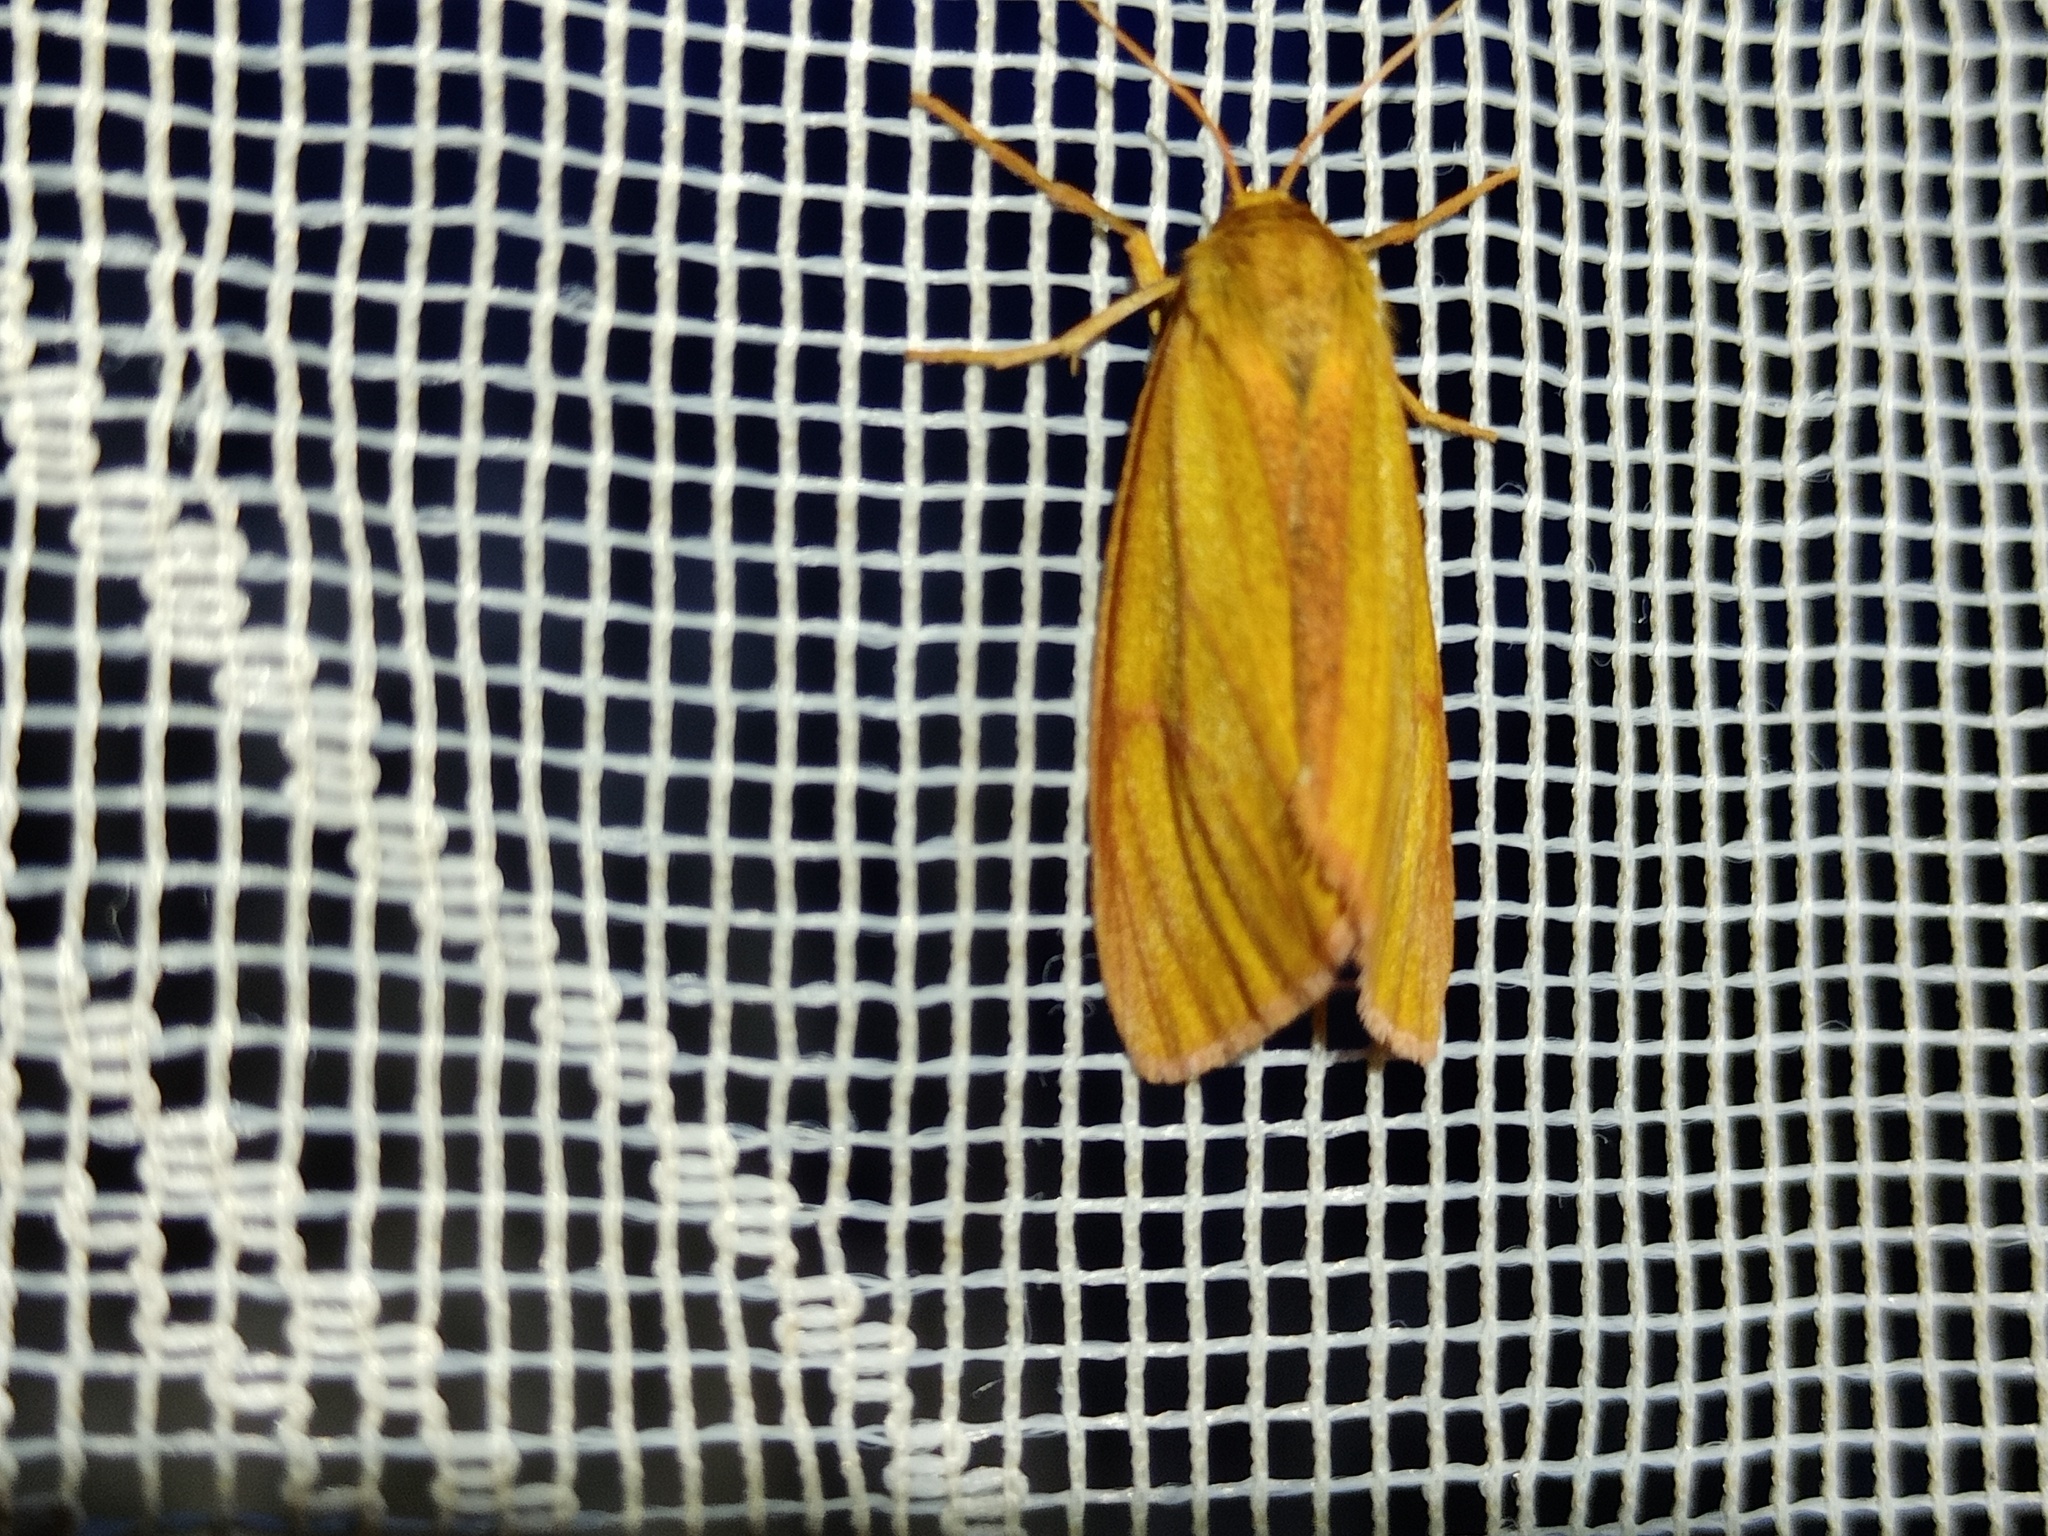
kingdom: Animalia
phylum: Arthropoda
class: Insecta
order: Lepidoptera
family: Erebidae
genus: Diacrisia
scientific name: Diacrisia sannio
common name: Clouded buff
